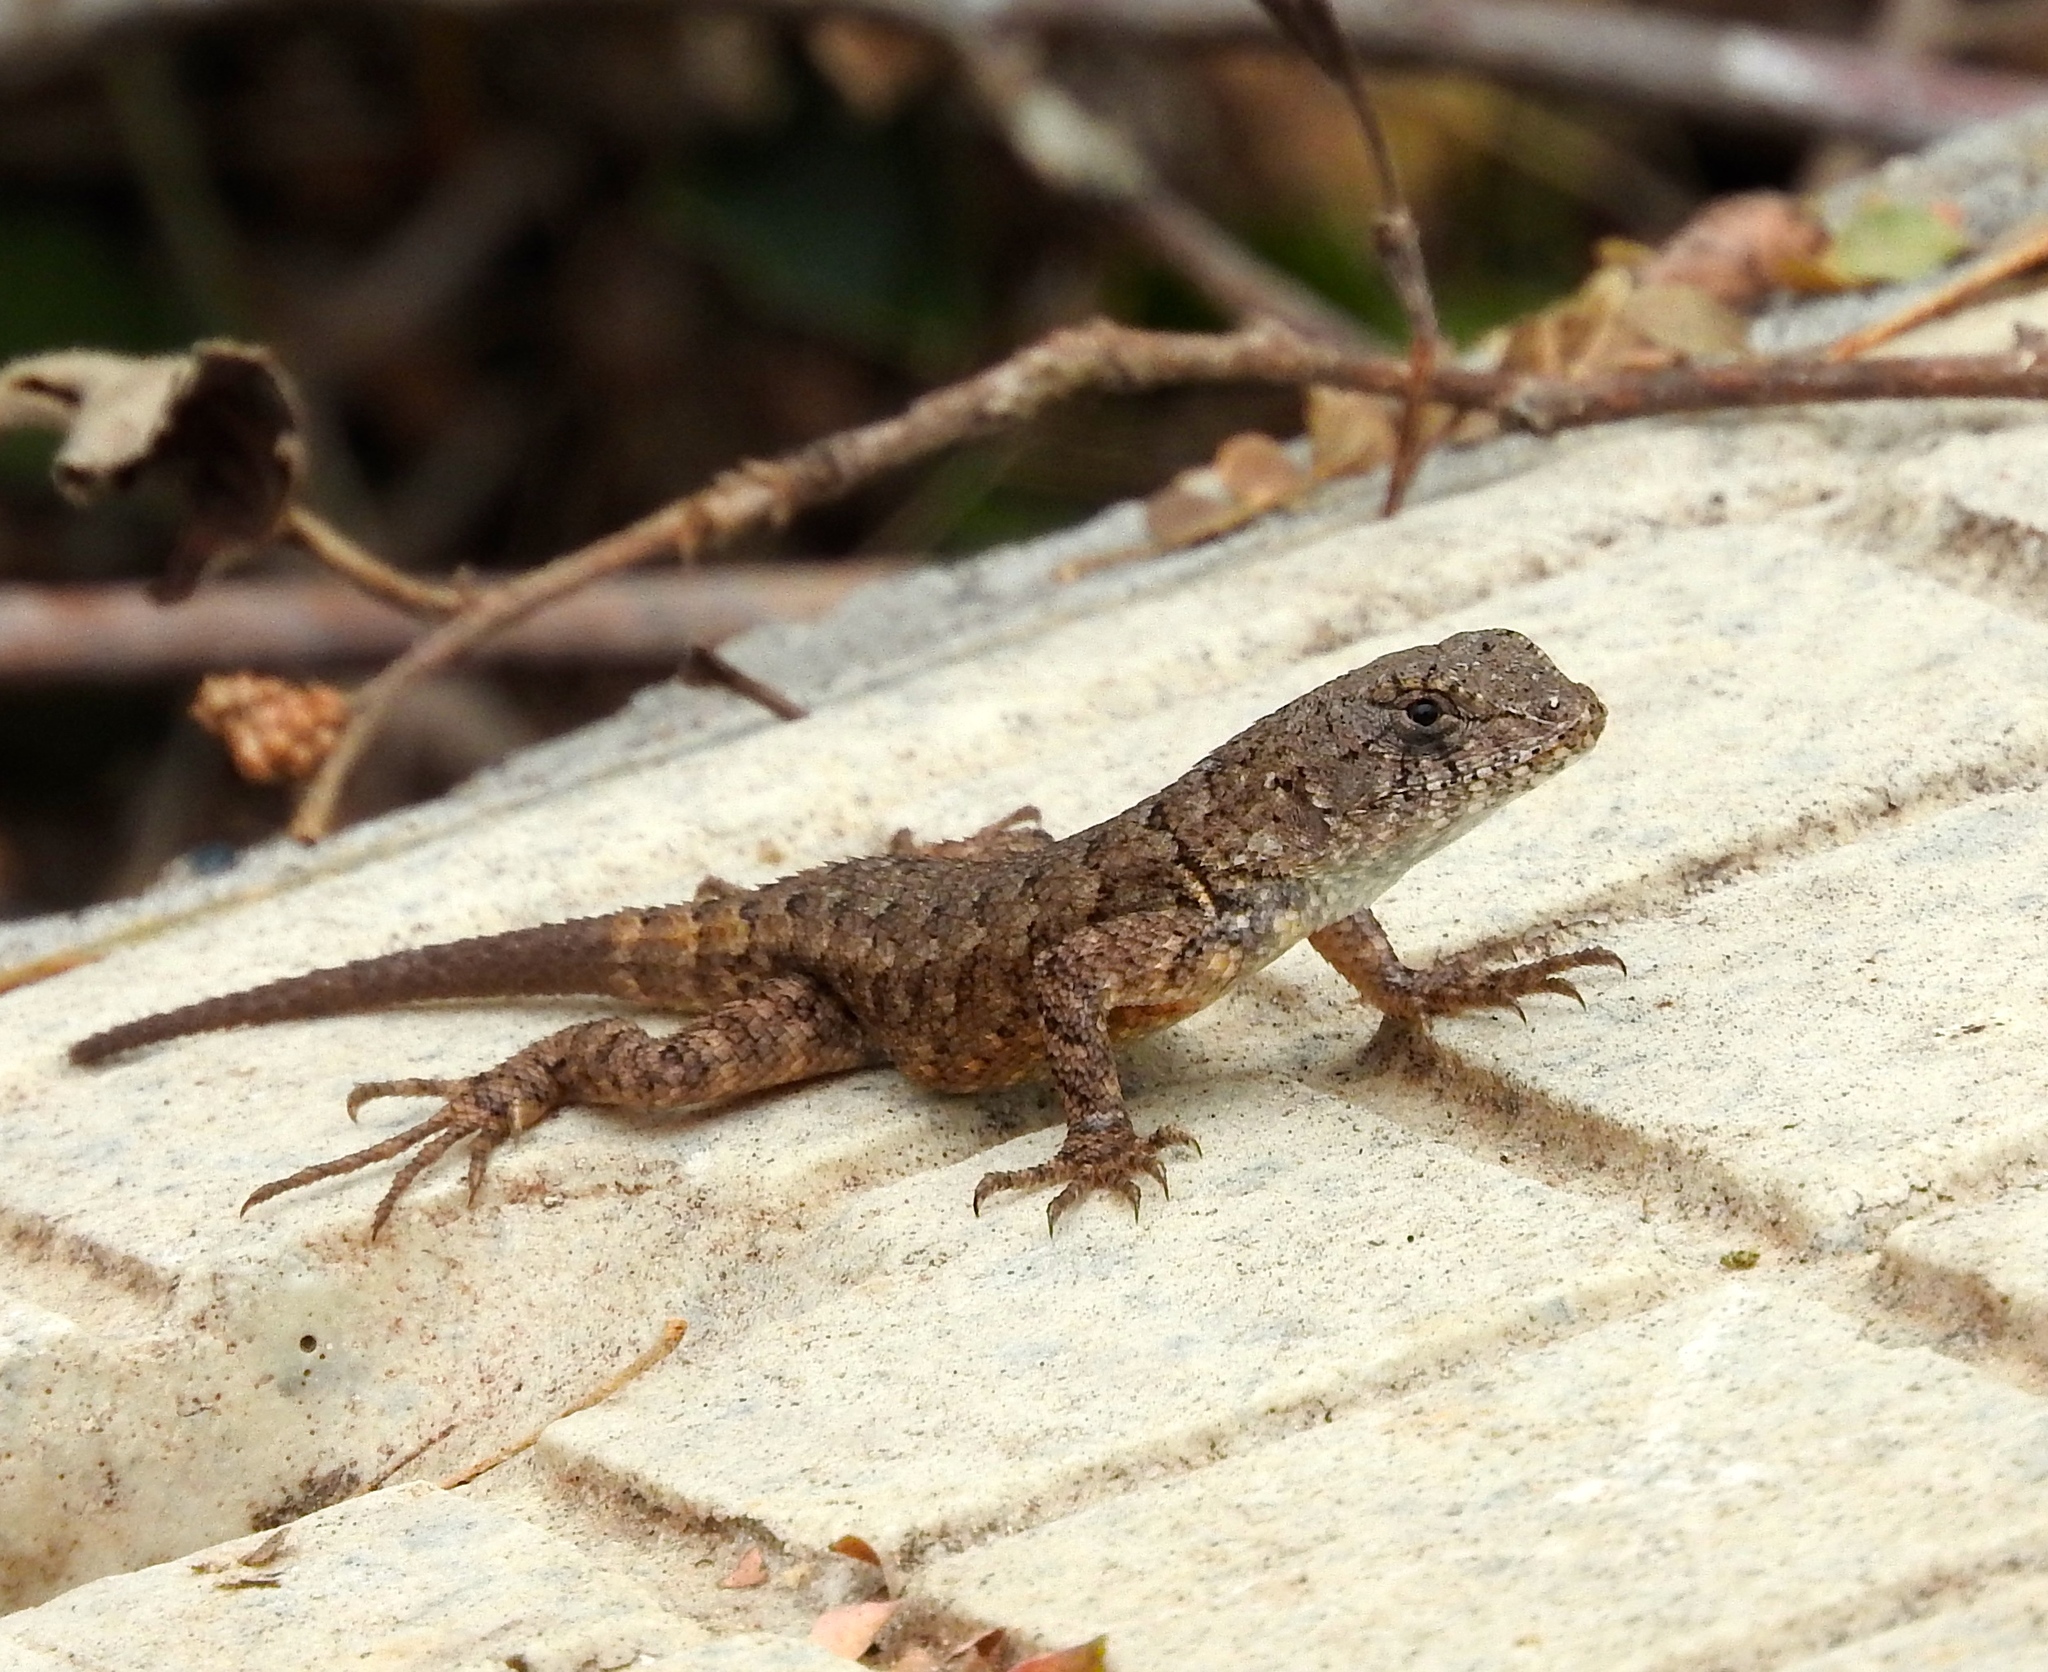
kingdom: Animalia
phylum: Chordata
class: Squamata
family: Phrynosomatidae
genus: Sceloporus
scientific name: Sceloporus nelsoni
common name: Nelson's spiny lizard
